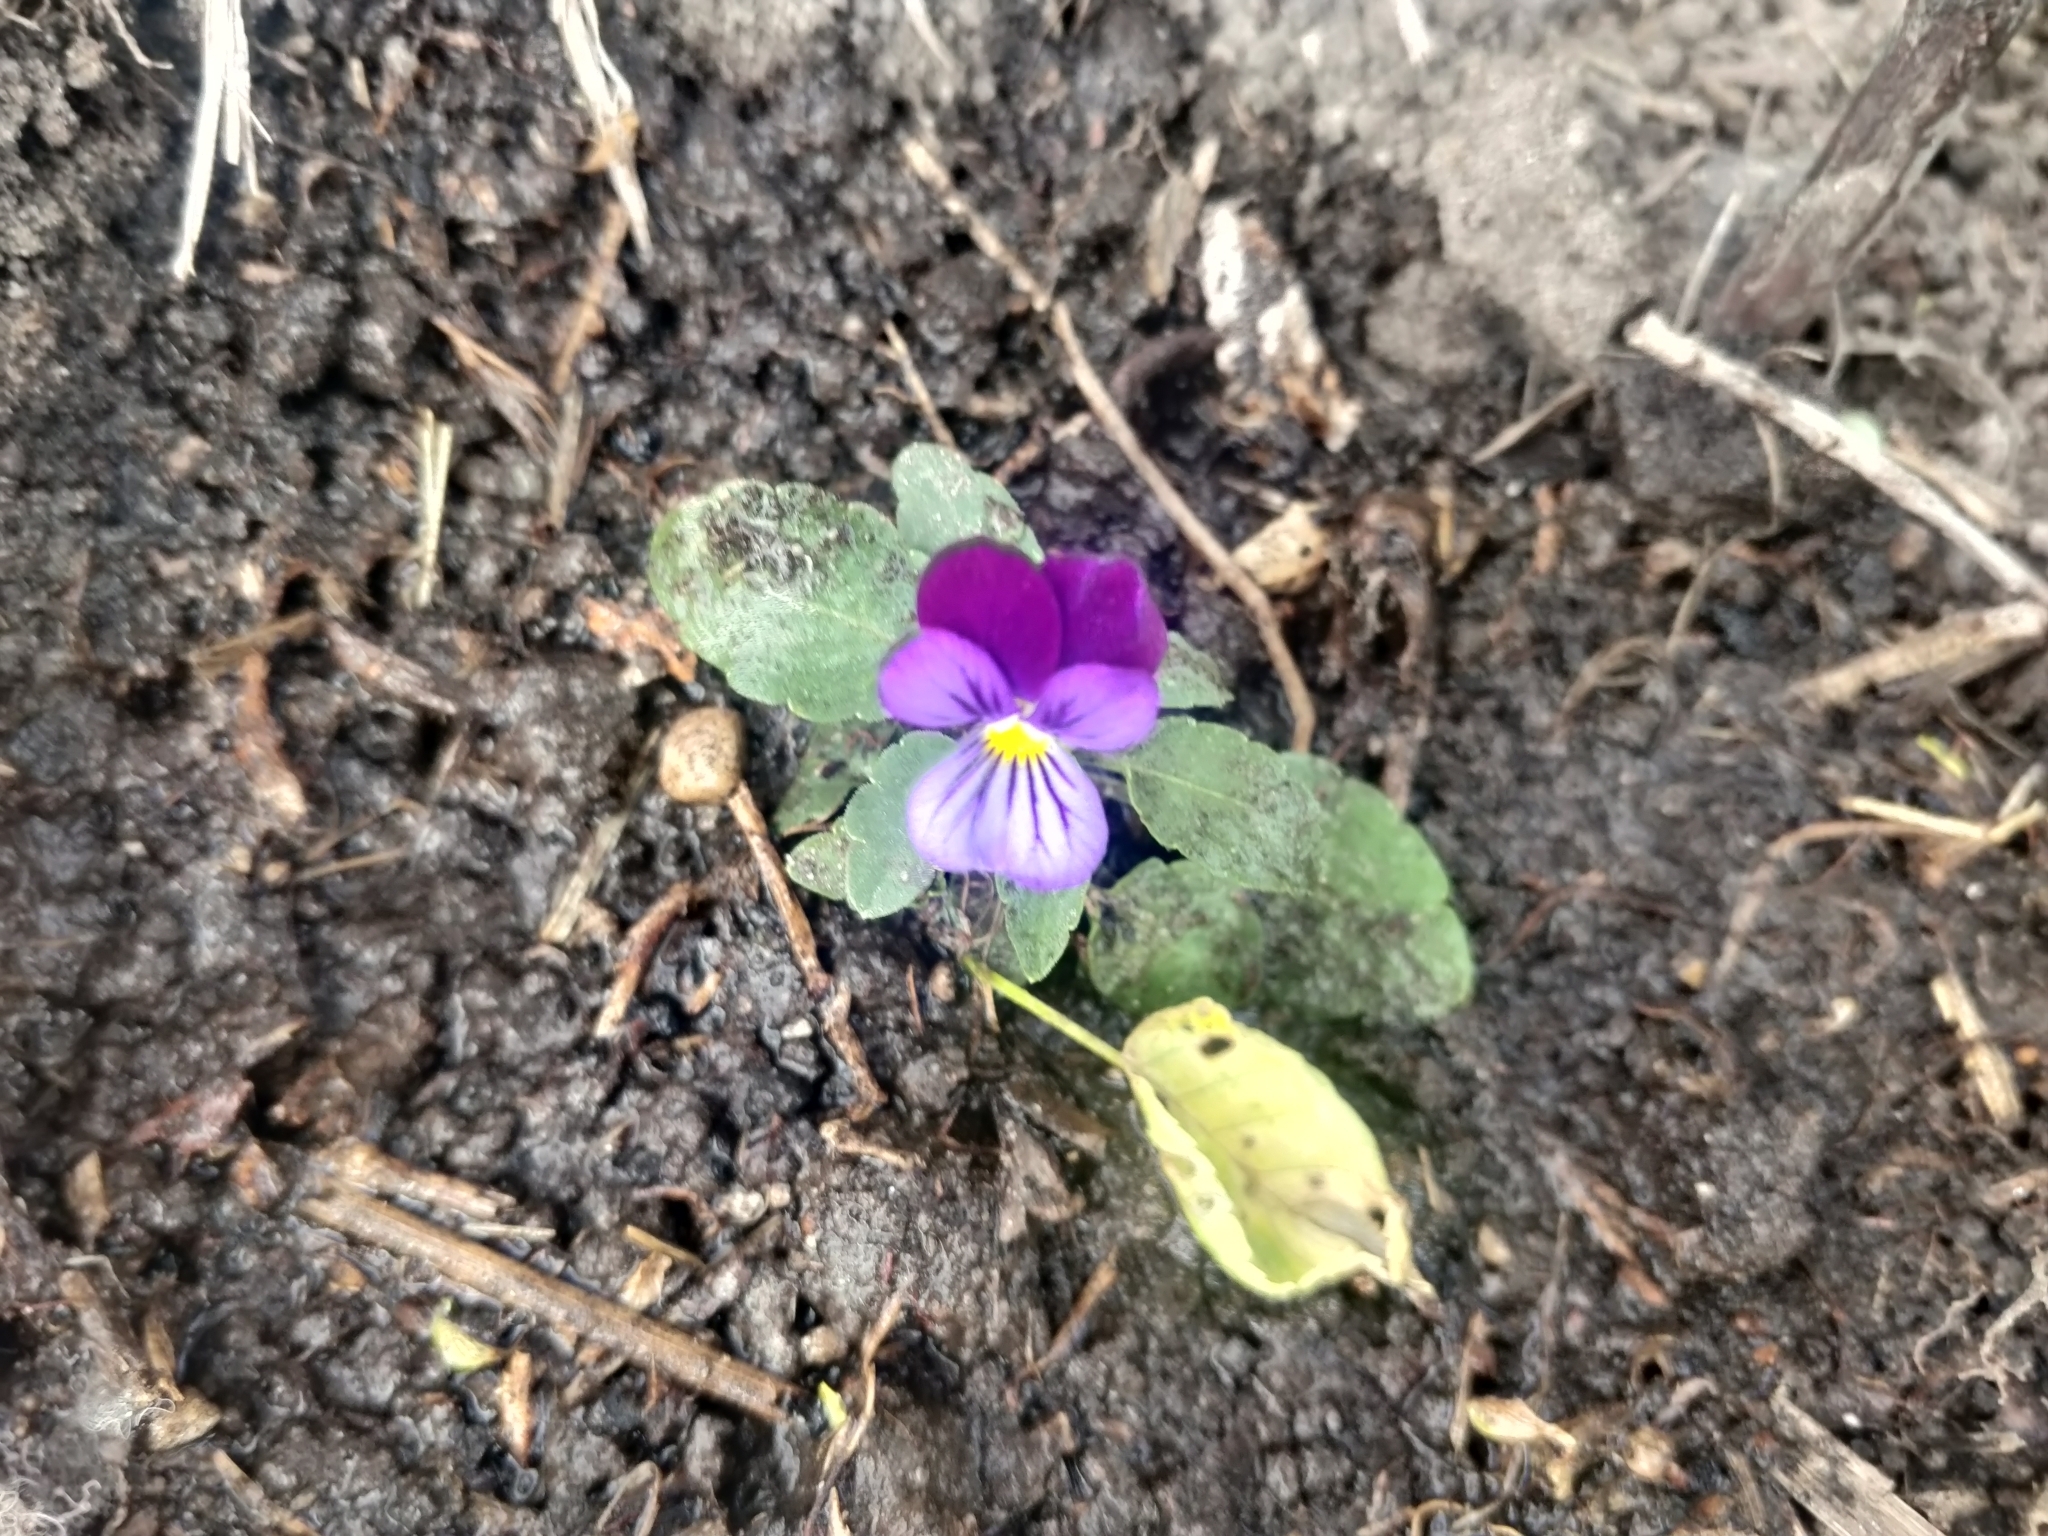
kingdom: Plantae
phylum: Tracheophyta
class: Magnoliopsida
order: Malpighiales
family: Violaceae
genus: Viola
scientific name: Viola tricolor
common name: Pansy
